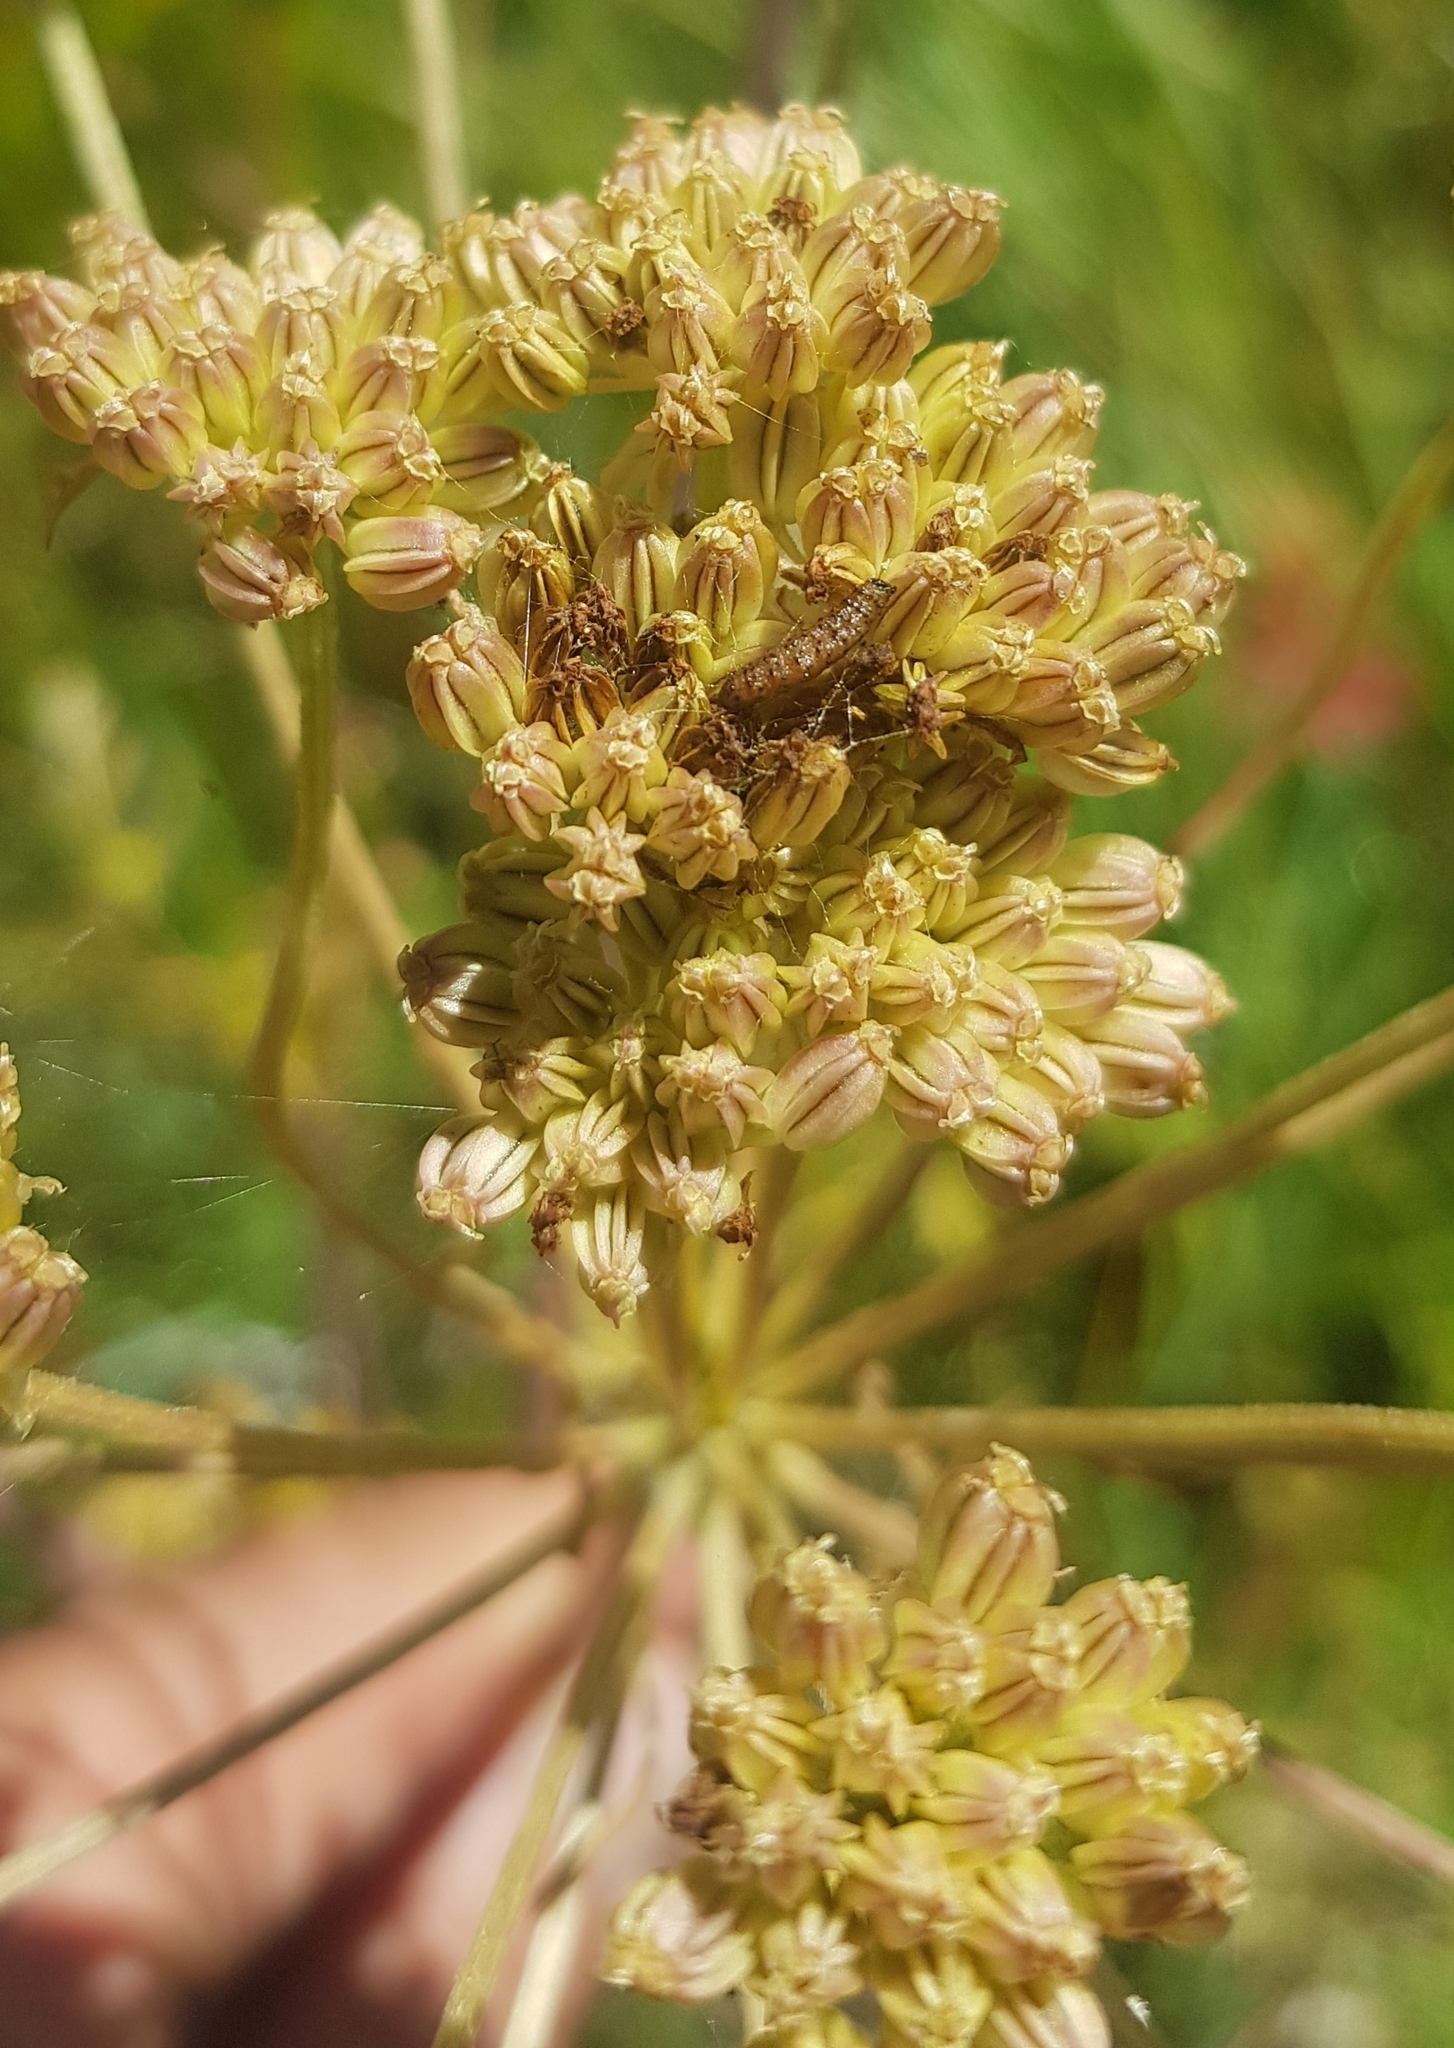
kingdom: Plantae
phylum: Tracheophyta
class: Magnoliopsida
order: Apiales
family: Apiaceae
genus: Cicuta
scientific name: Cicuta virosa
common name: Cowbane
